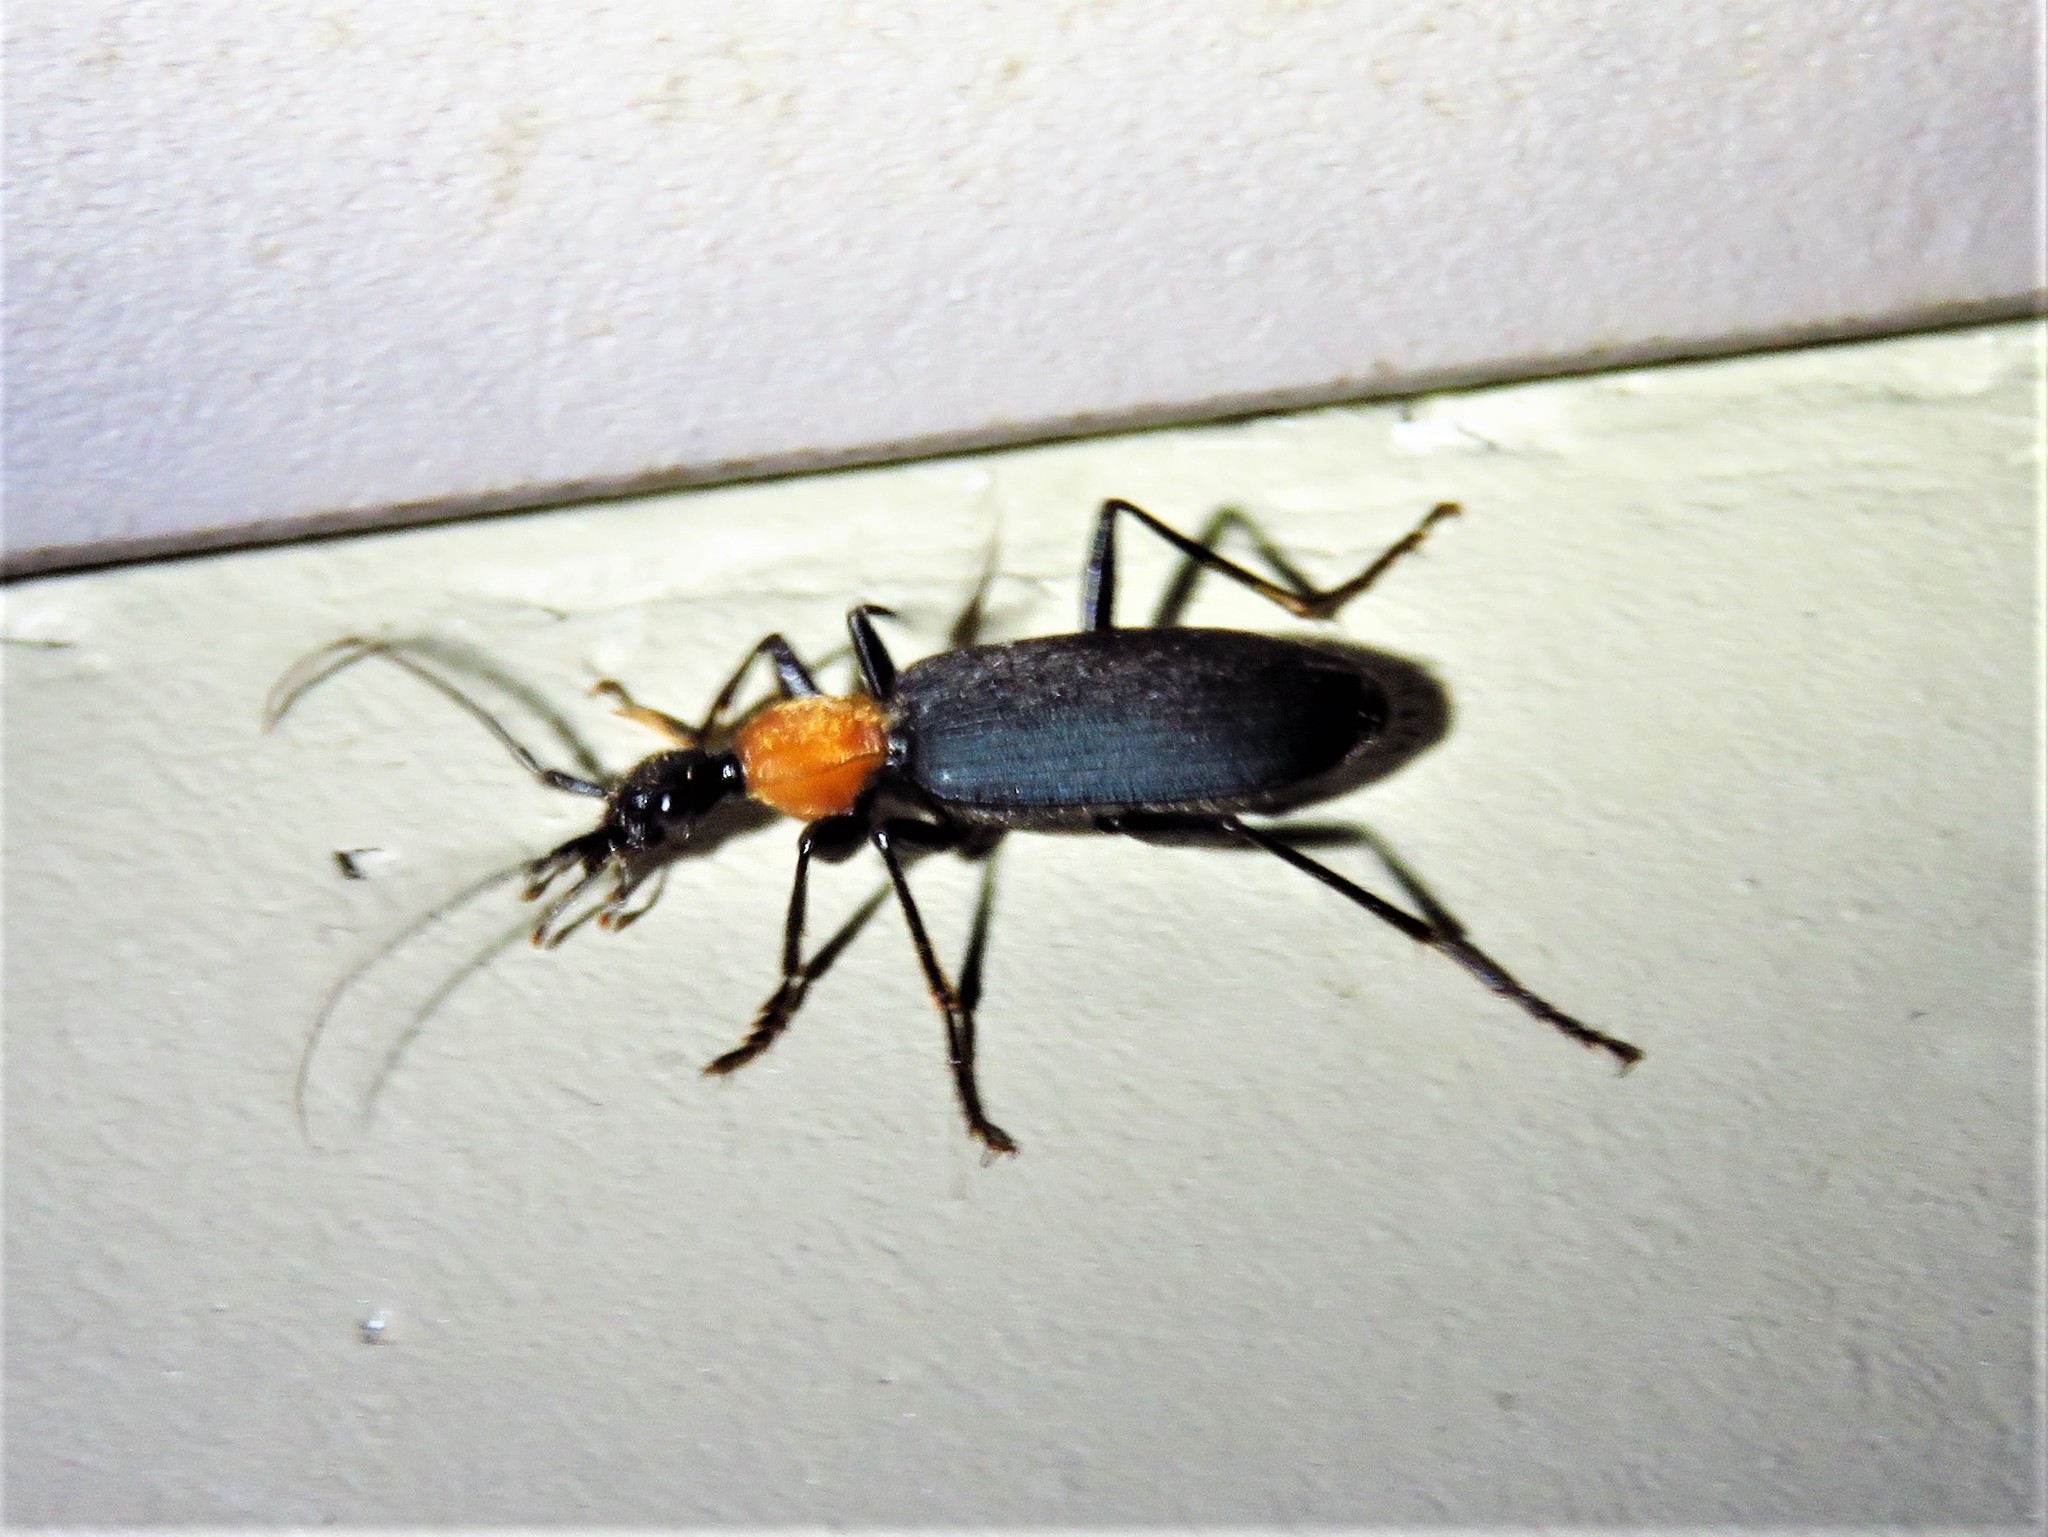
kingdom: Animalia
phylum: Arthropoda
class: Insecta
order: Coleoptera
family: Carabidae
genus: Galerita
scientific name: Galerita atripes
